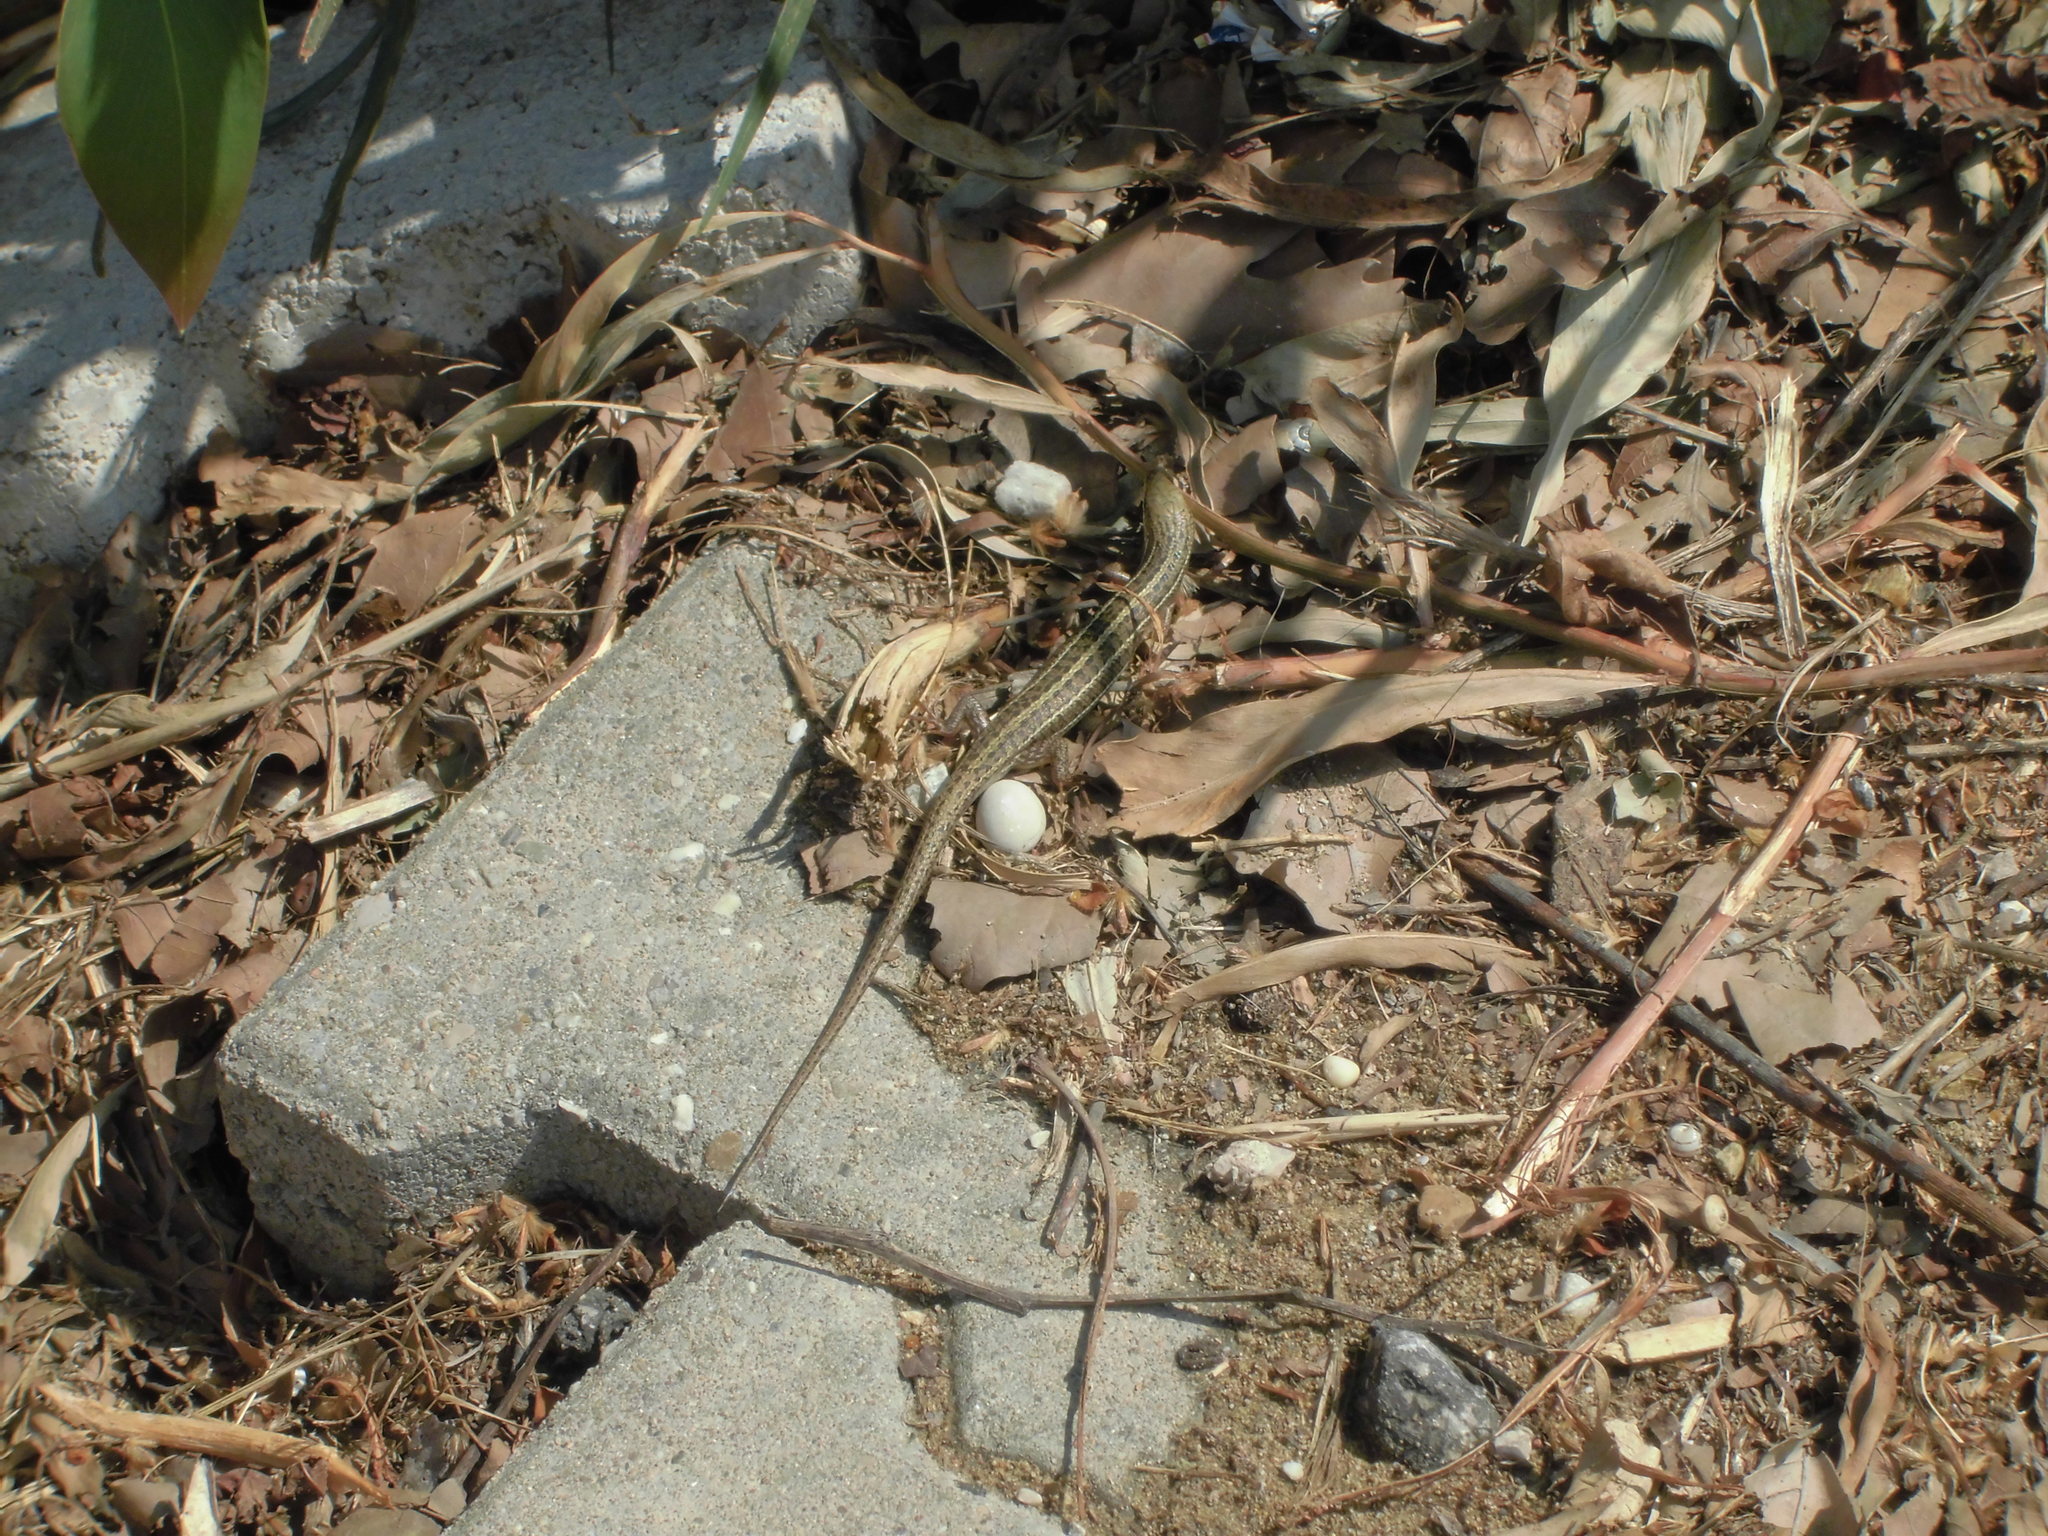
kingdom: Animalia
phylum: Chordata
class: Squamata
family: Scincidae
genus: Heremites
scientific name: Heremites vittatus
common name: Bridled mabuya
